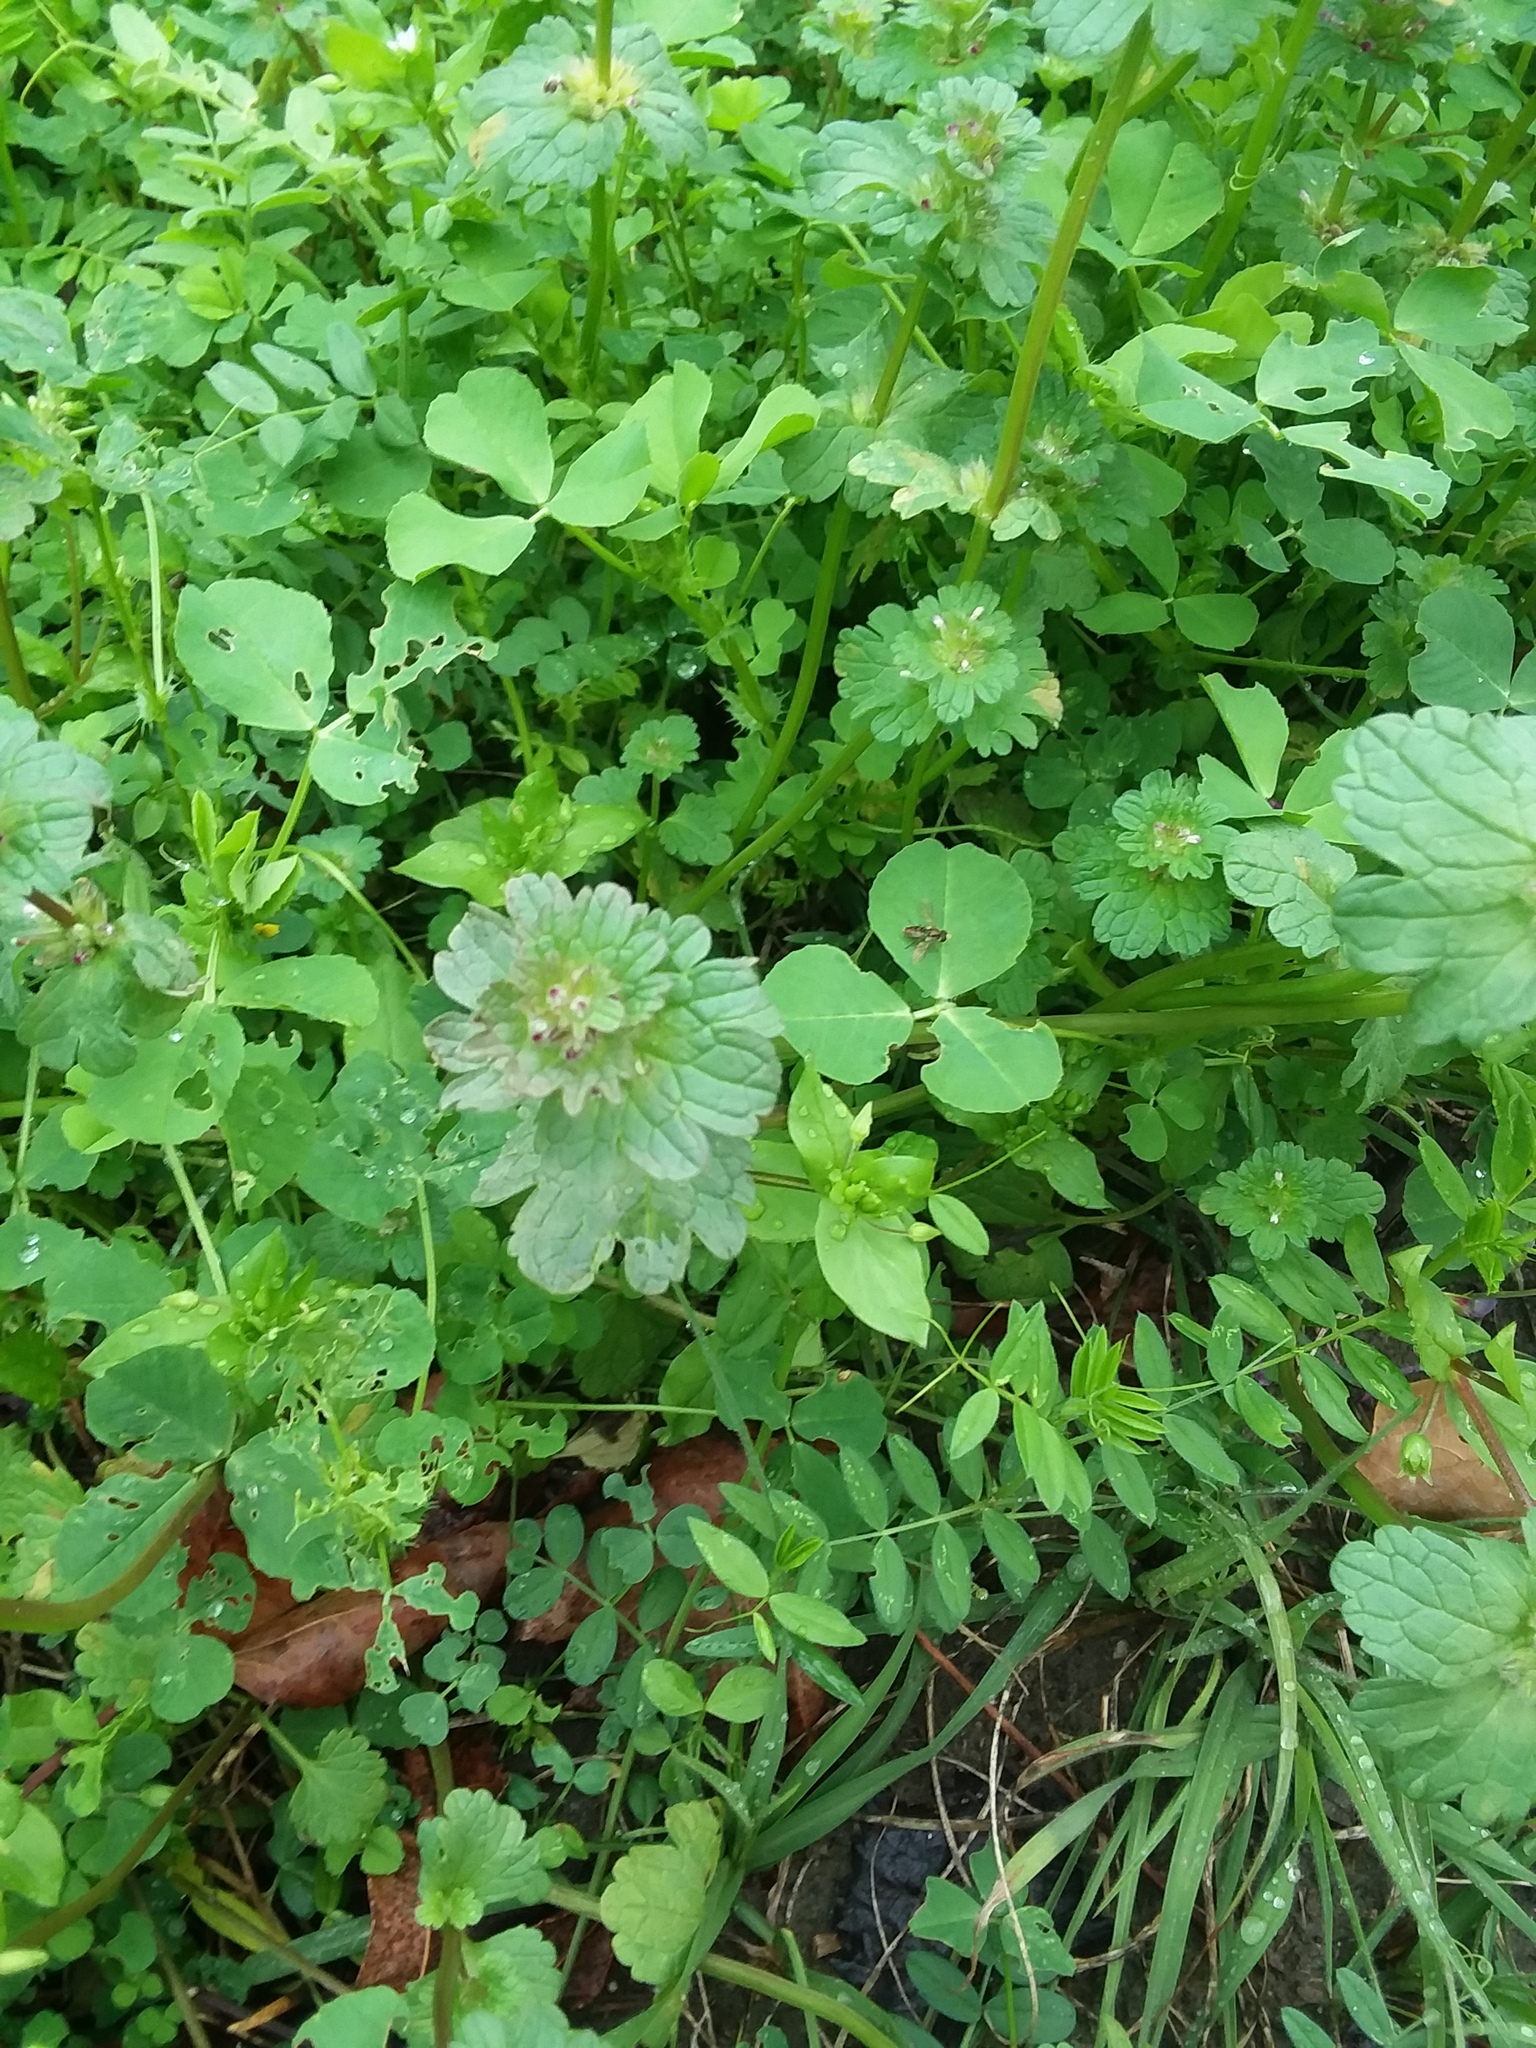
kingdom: Animalia
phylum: Arthropoda
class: Insecta
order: Diptera
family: Syrphidae
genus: Toxomerus
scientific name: Toxomerus marginatus
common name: Syrphid fly
